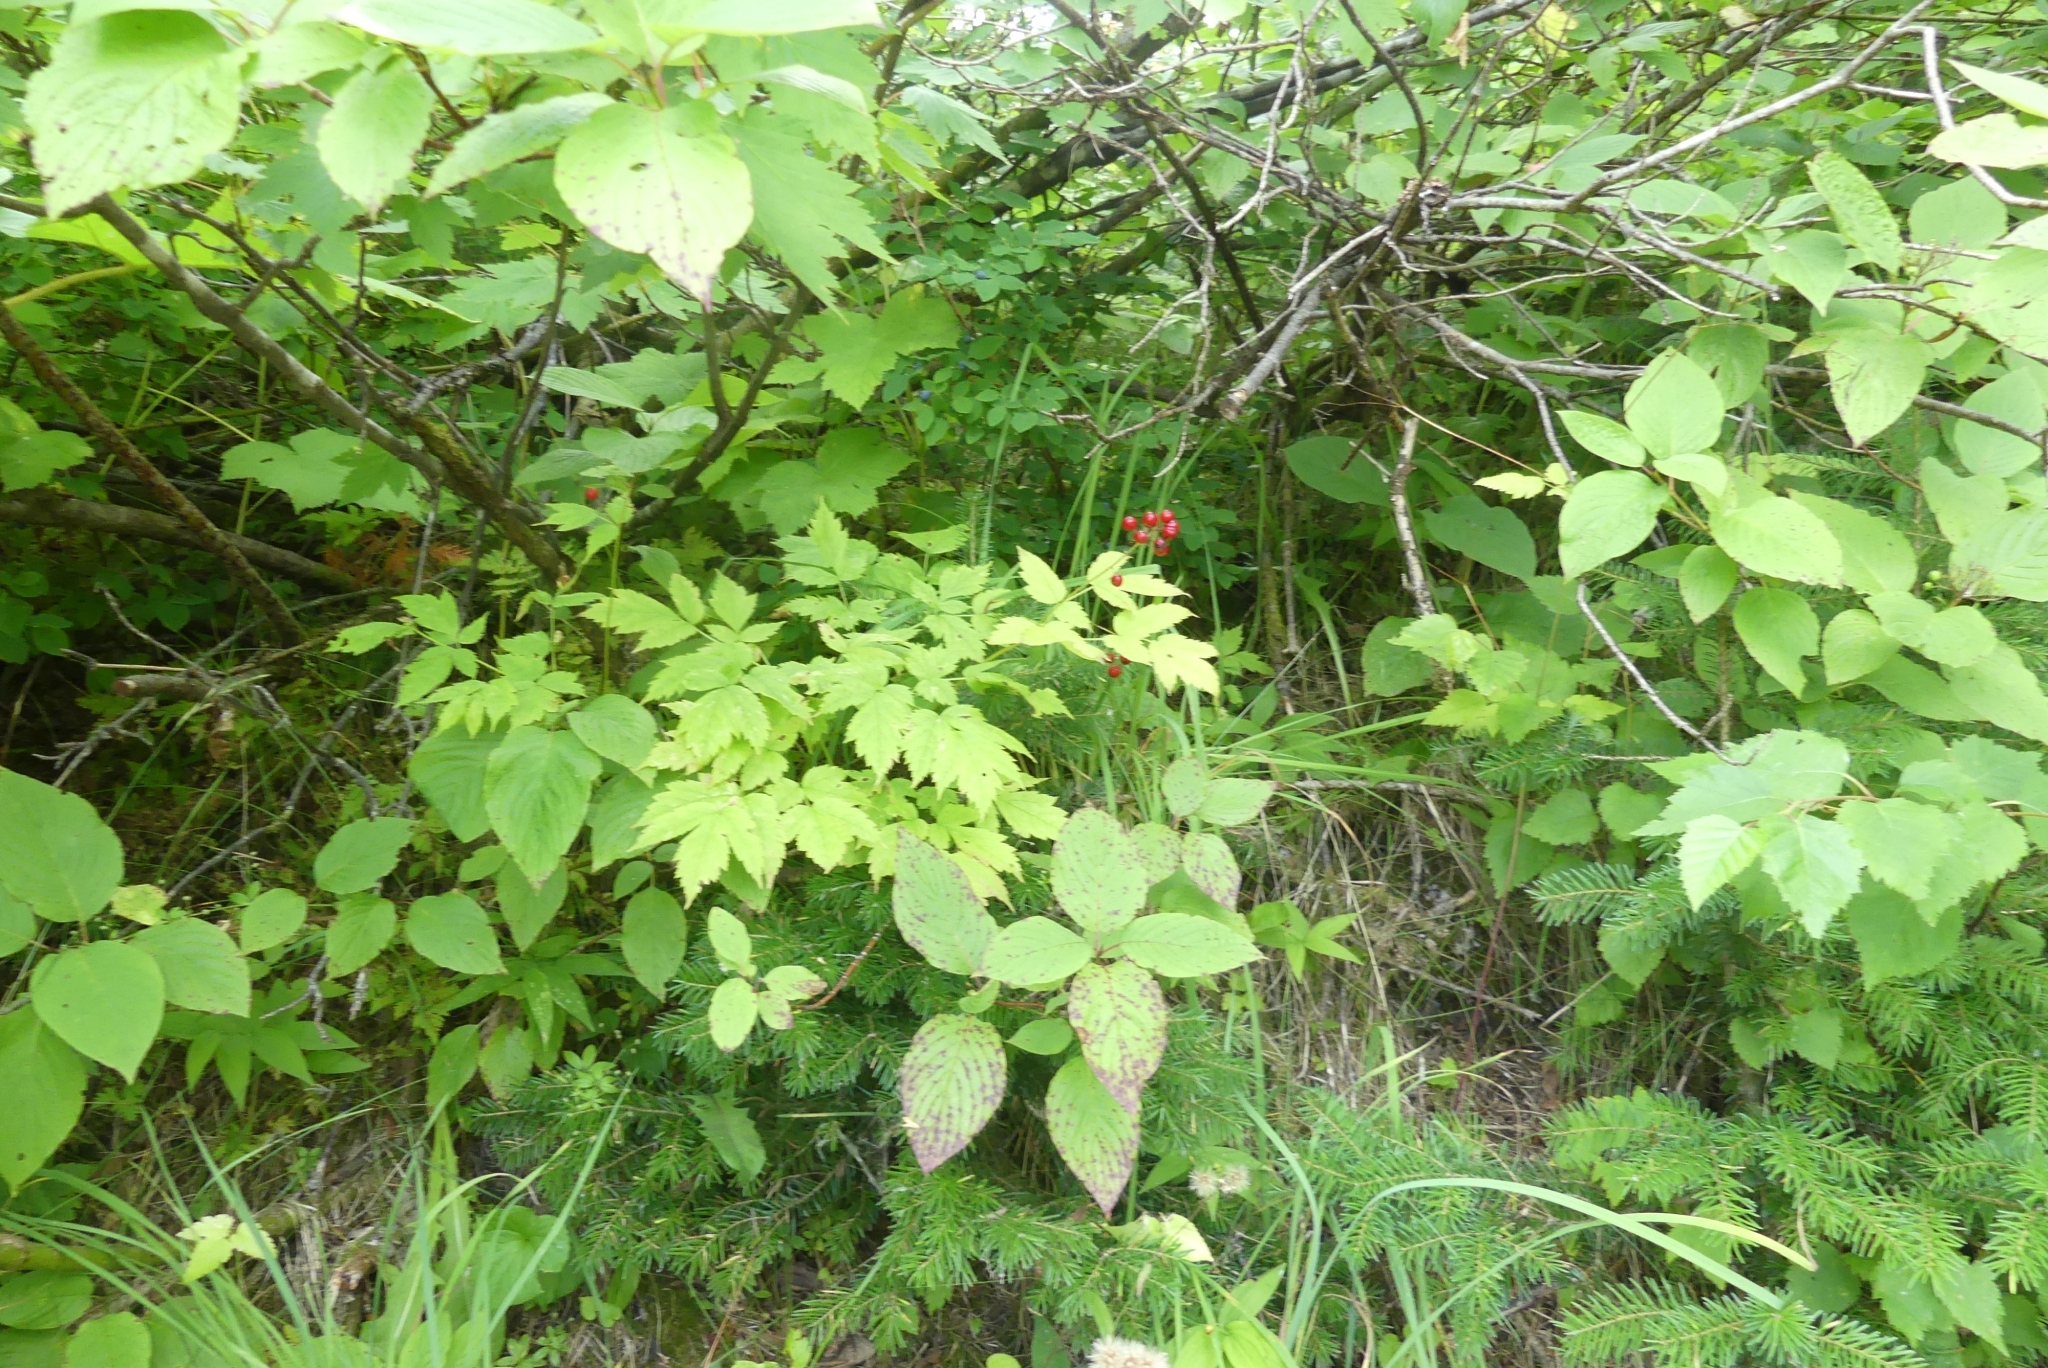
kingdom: Plantae
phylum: Tracheophyta
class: Magnoliopsida
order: Ranunculales
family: Ranunculaceae
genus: Actaea
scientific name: Actaea rubra
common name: Red baneberry
